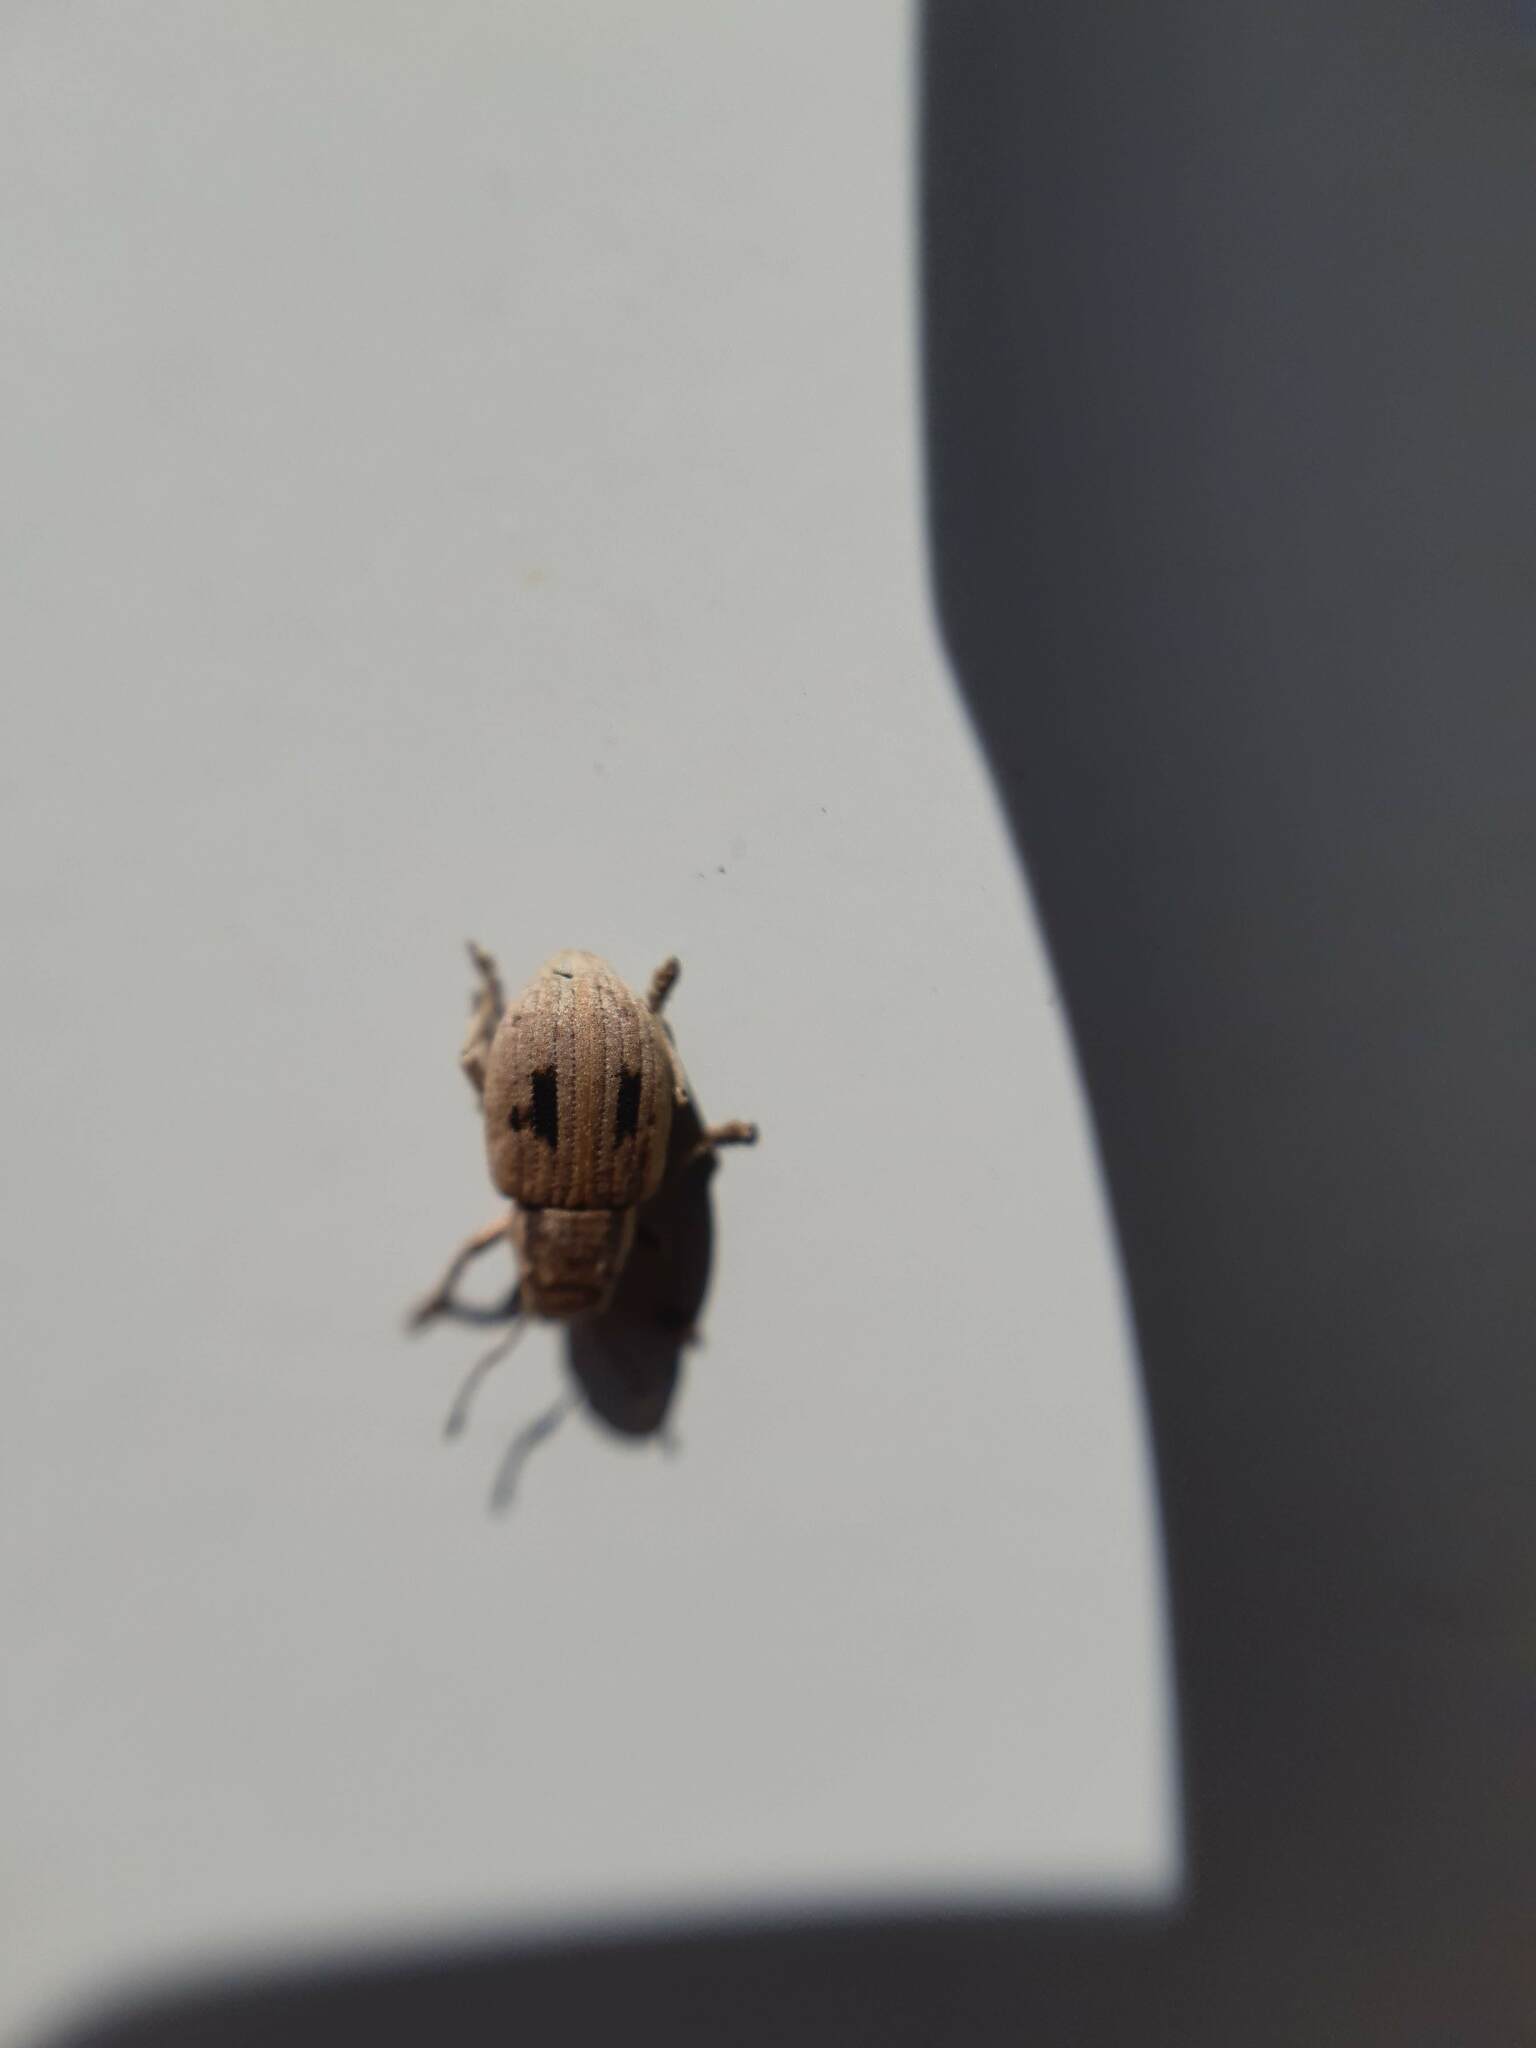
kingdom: Animalia
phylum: Arthropoda
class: Insecta
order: Coleoptera
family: Curculionidae
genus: Eurymetopus
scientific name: Eurymetopus birabeni
